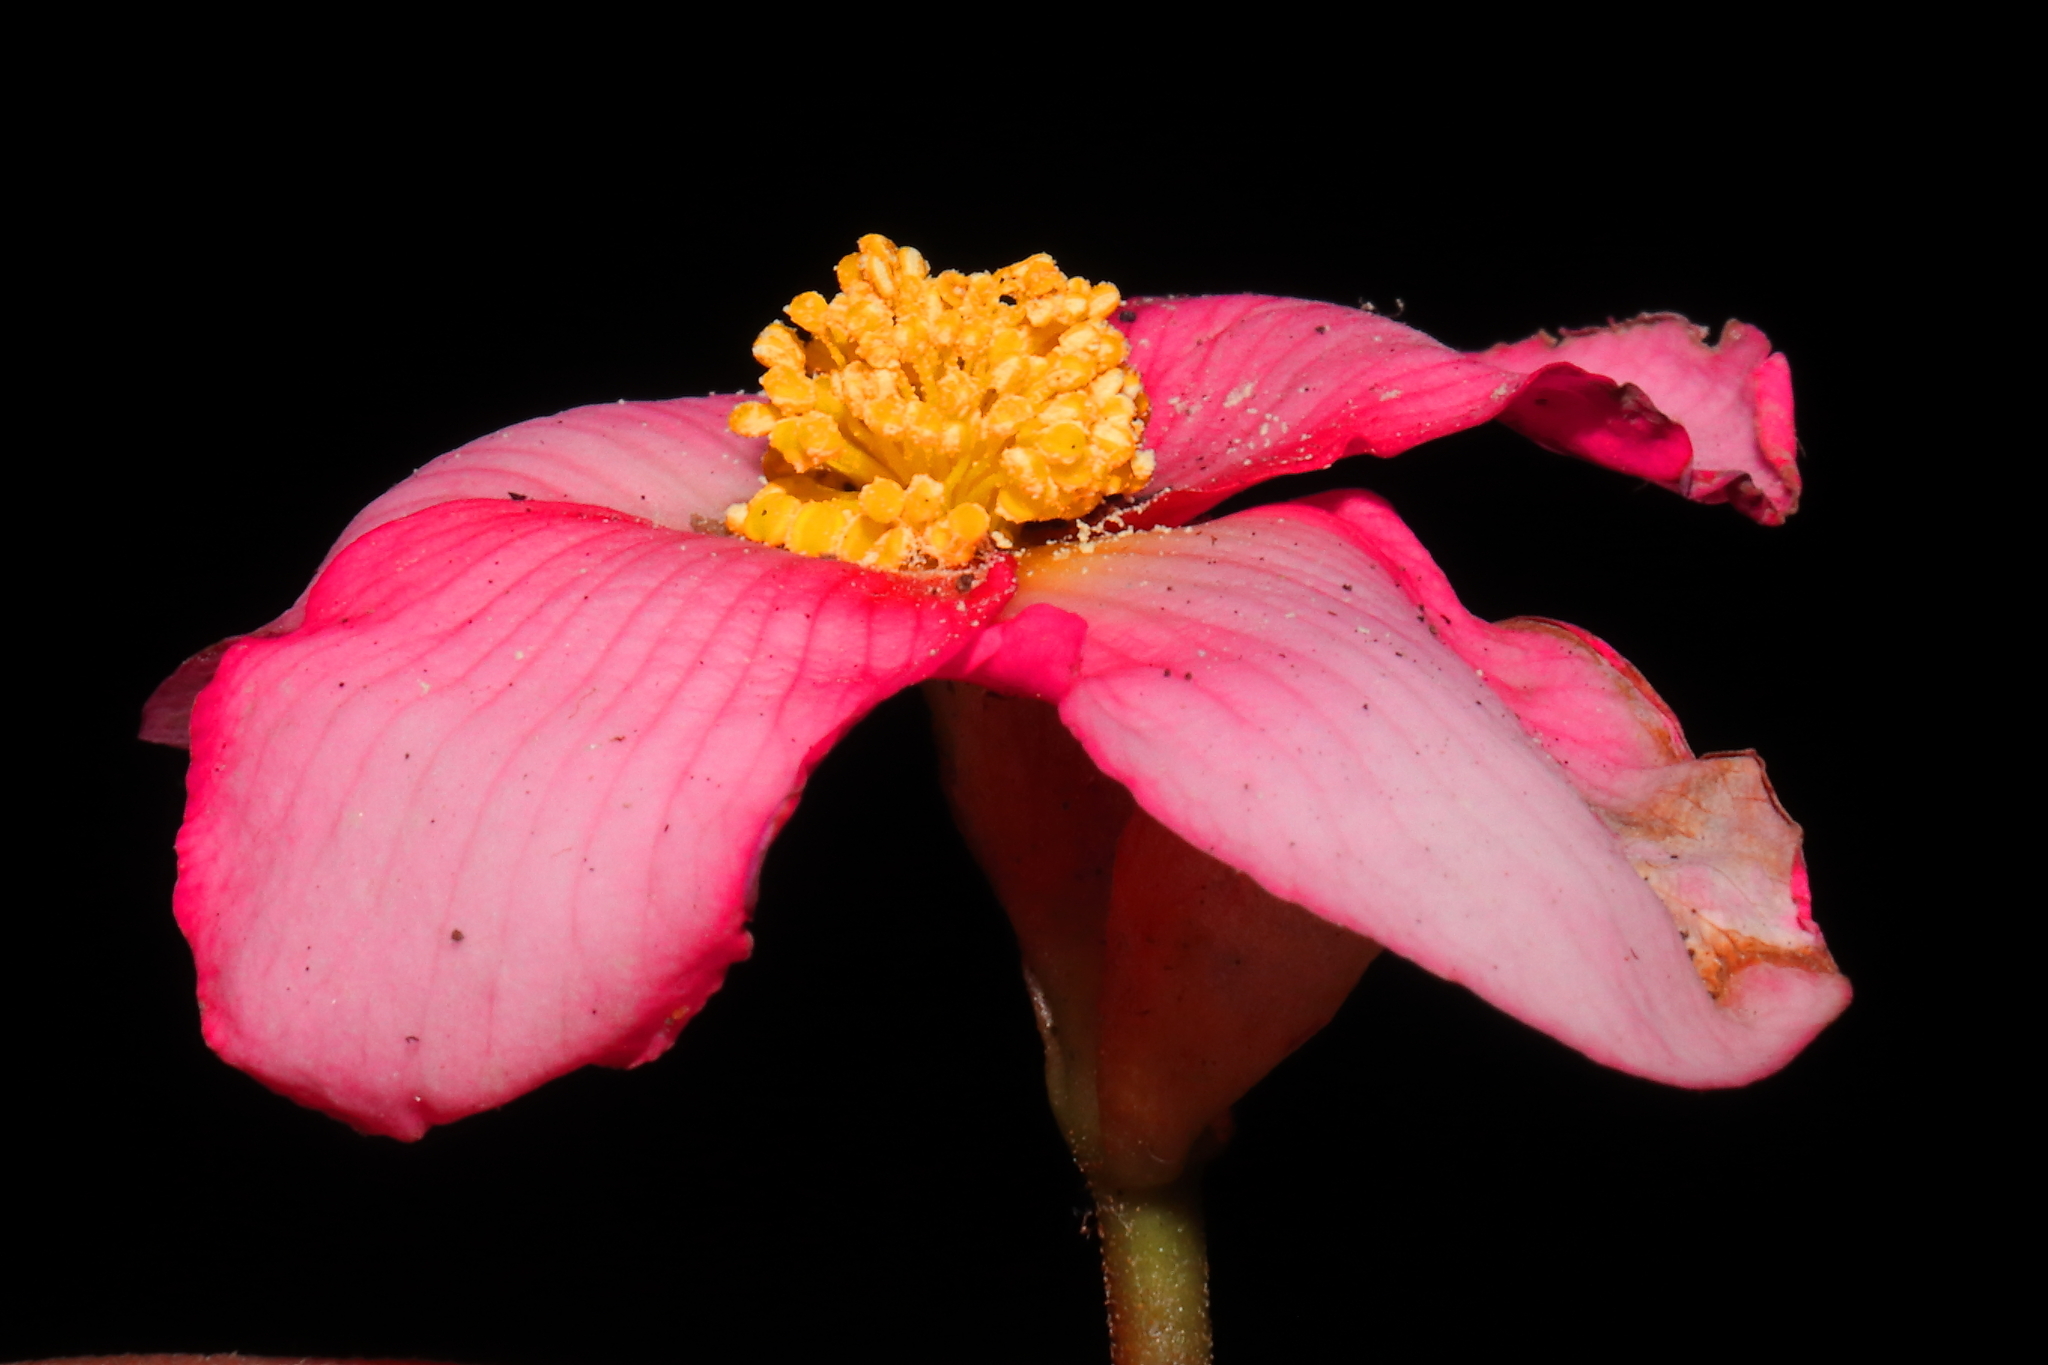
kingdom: Plantae
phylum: Tracheophyta
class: Magnoliopsida
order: Cucurbitales
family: Begoniaceae
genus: Begonia
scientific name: Begonia veitchii
